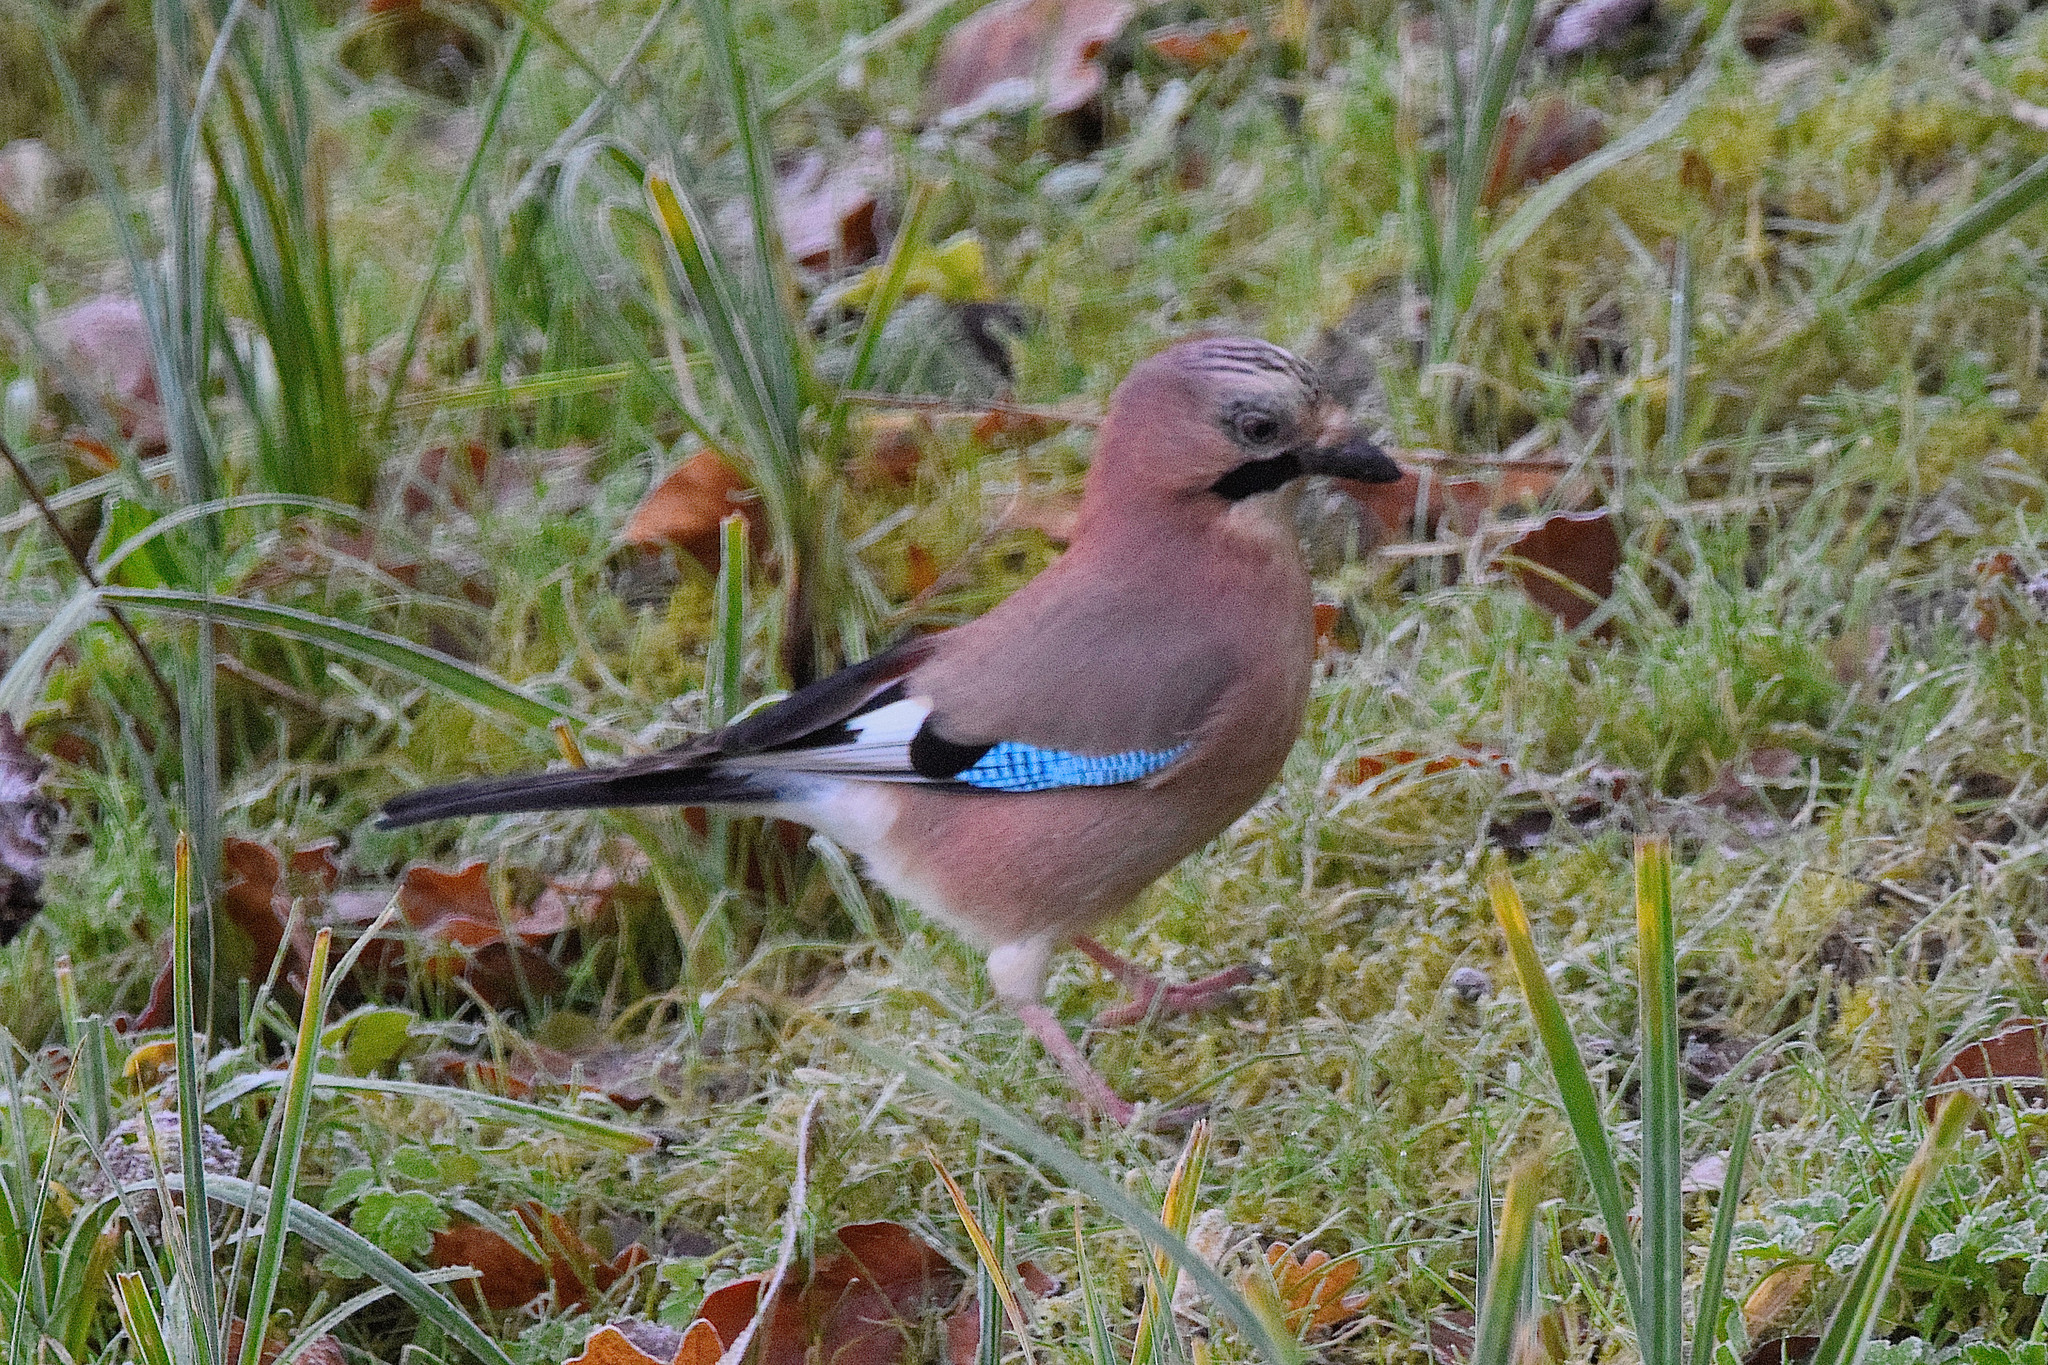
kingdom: Animalia
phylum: Chordata
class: Aves
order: Passeriformes
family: Corvidae
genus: Garrulus
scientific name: Garrulus glandarius
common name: Eurasian jay
